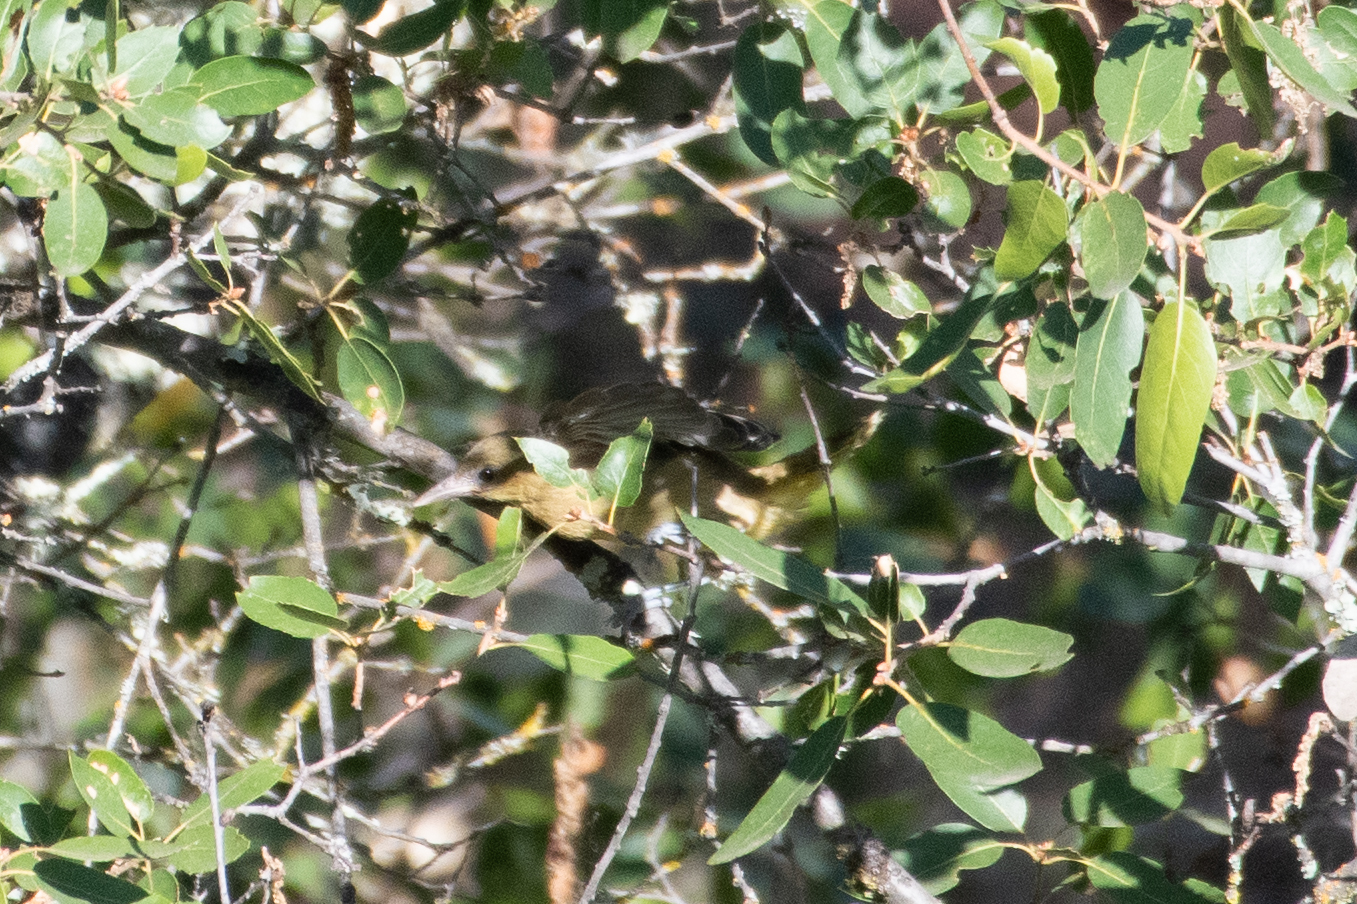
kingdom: Animalia
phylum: Chordata
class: Aves
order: Passeriformes
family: Icteridae
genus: Icterus
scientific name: Icterus cucullatus
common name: Hooded oriole
